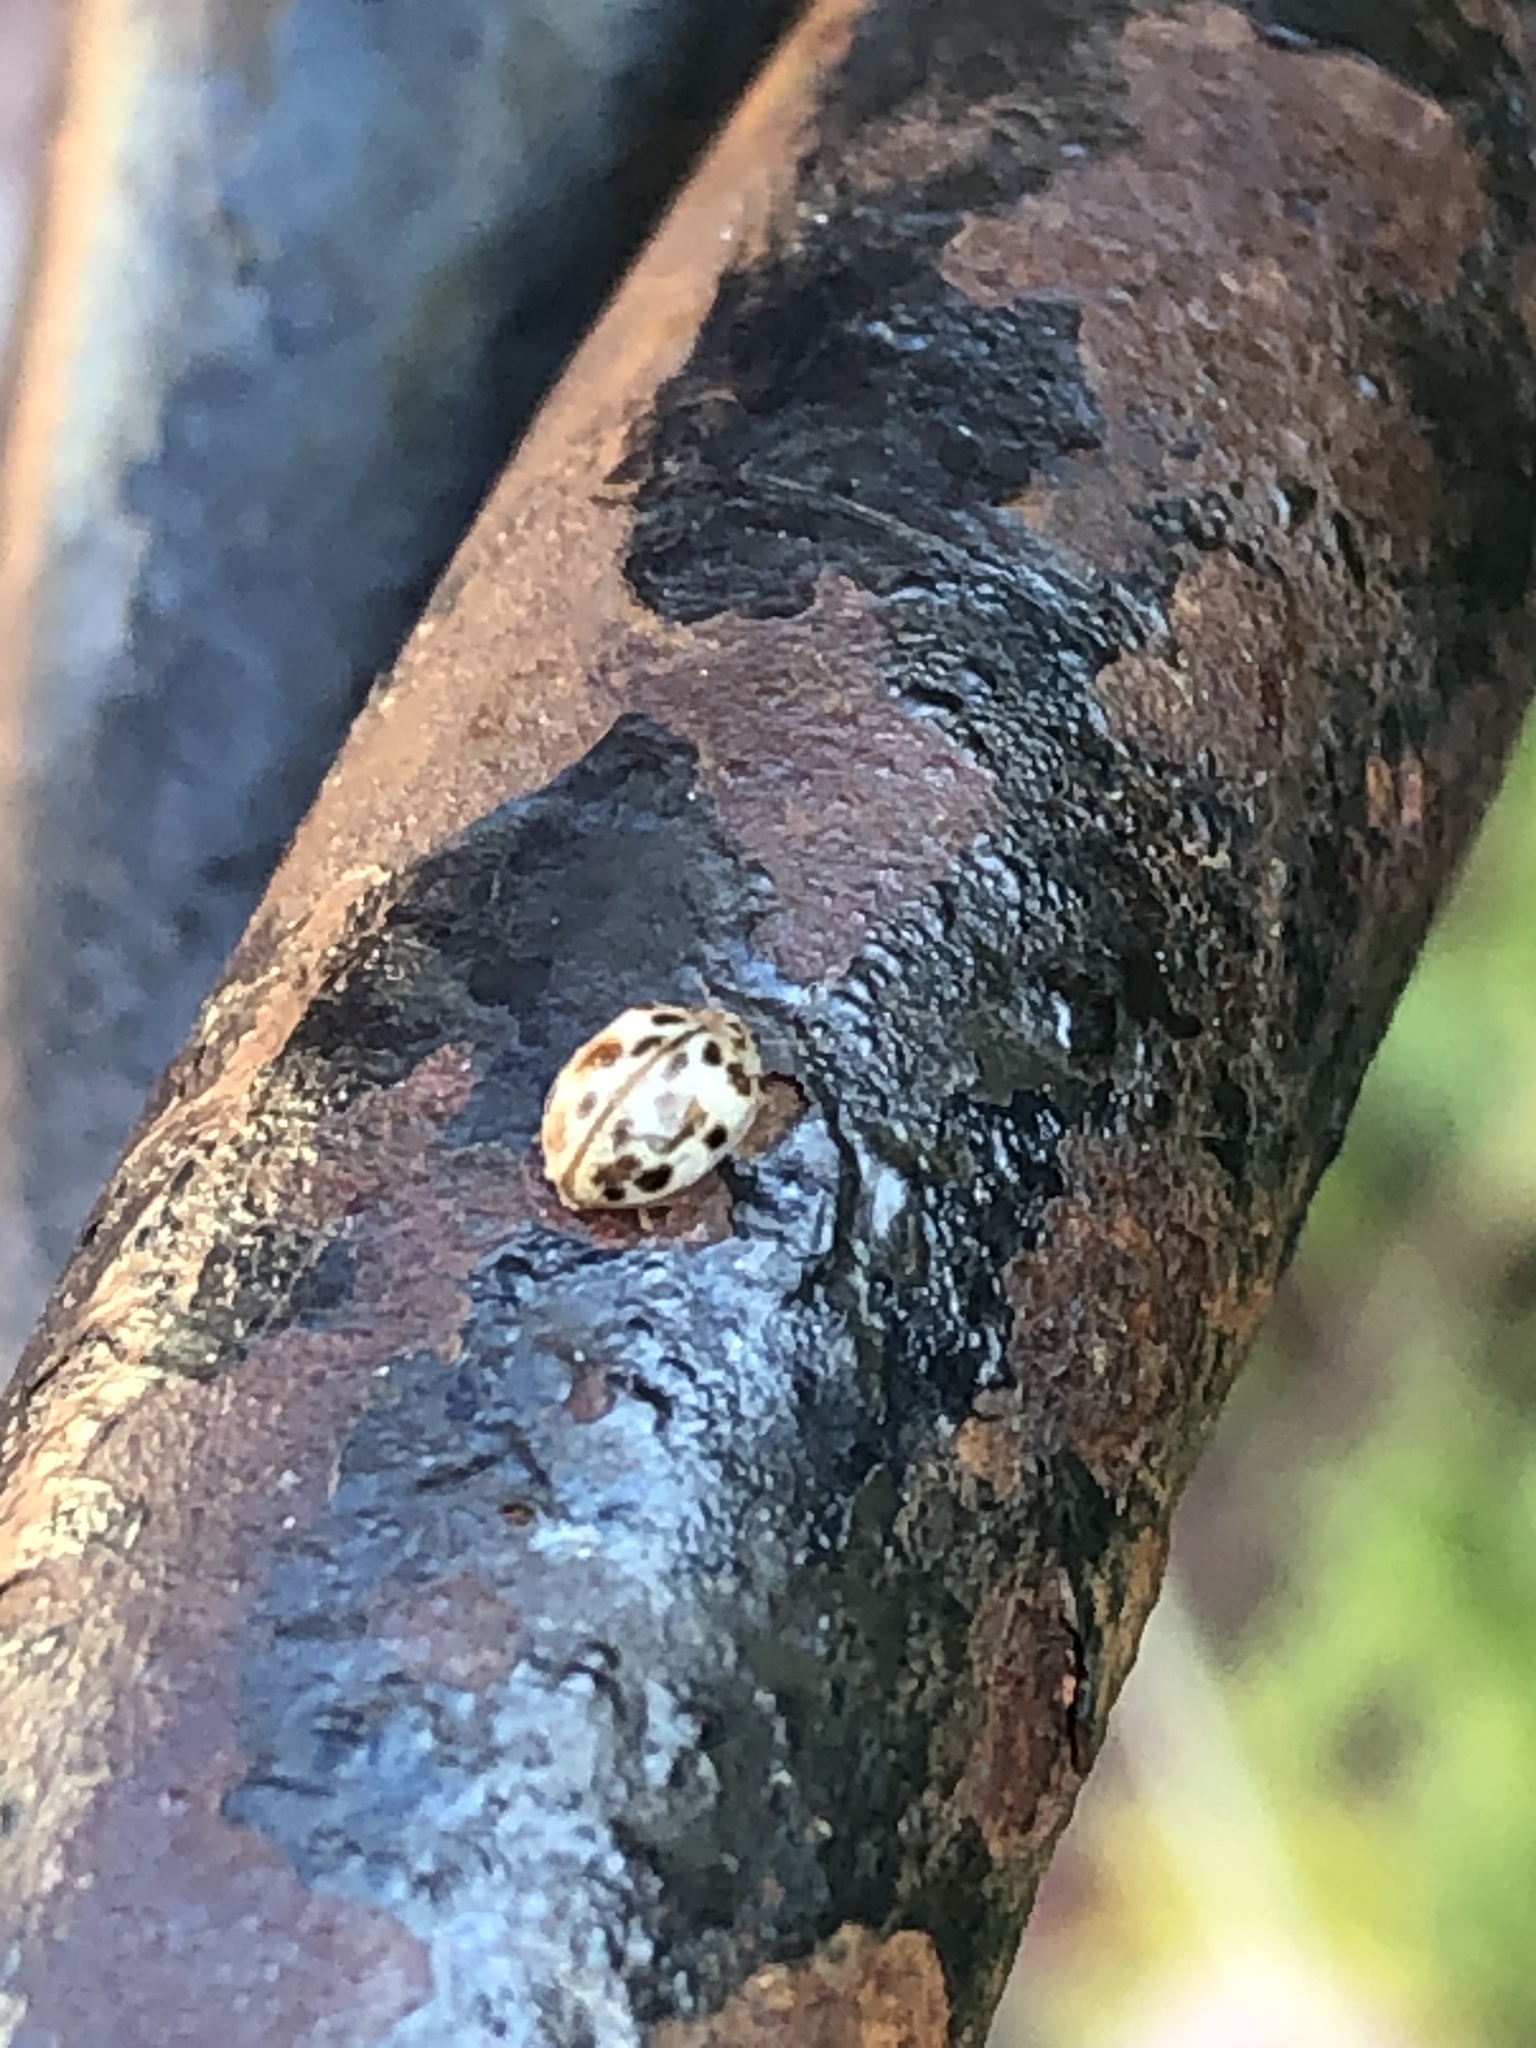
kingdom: Animalia
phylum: Arthropoda
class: Insecta
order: Coleoptera
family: Coccinellidae
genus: Psyllobora
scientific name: Psyllobora vigintimaculata
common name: Ladybird beetle
